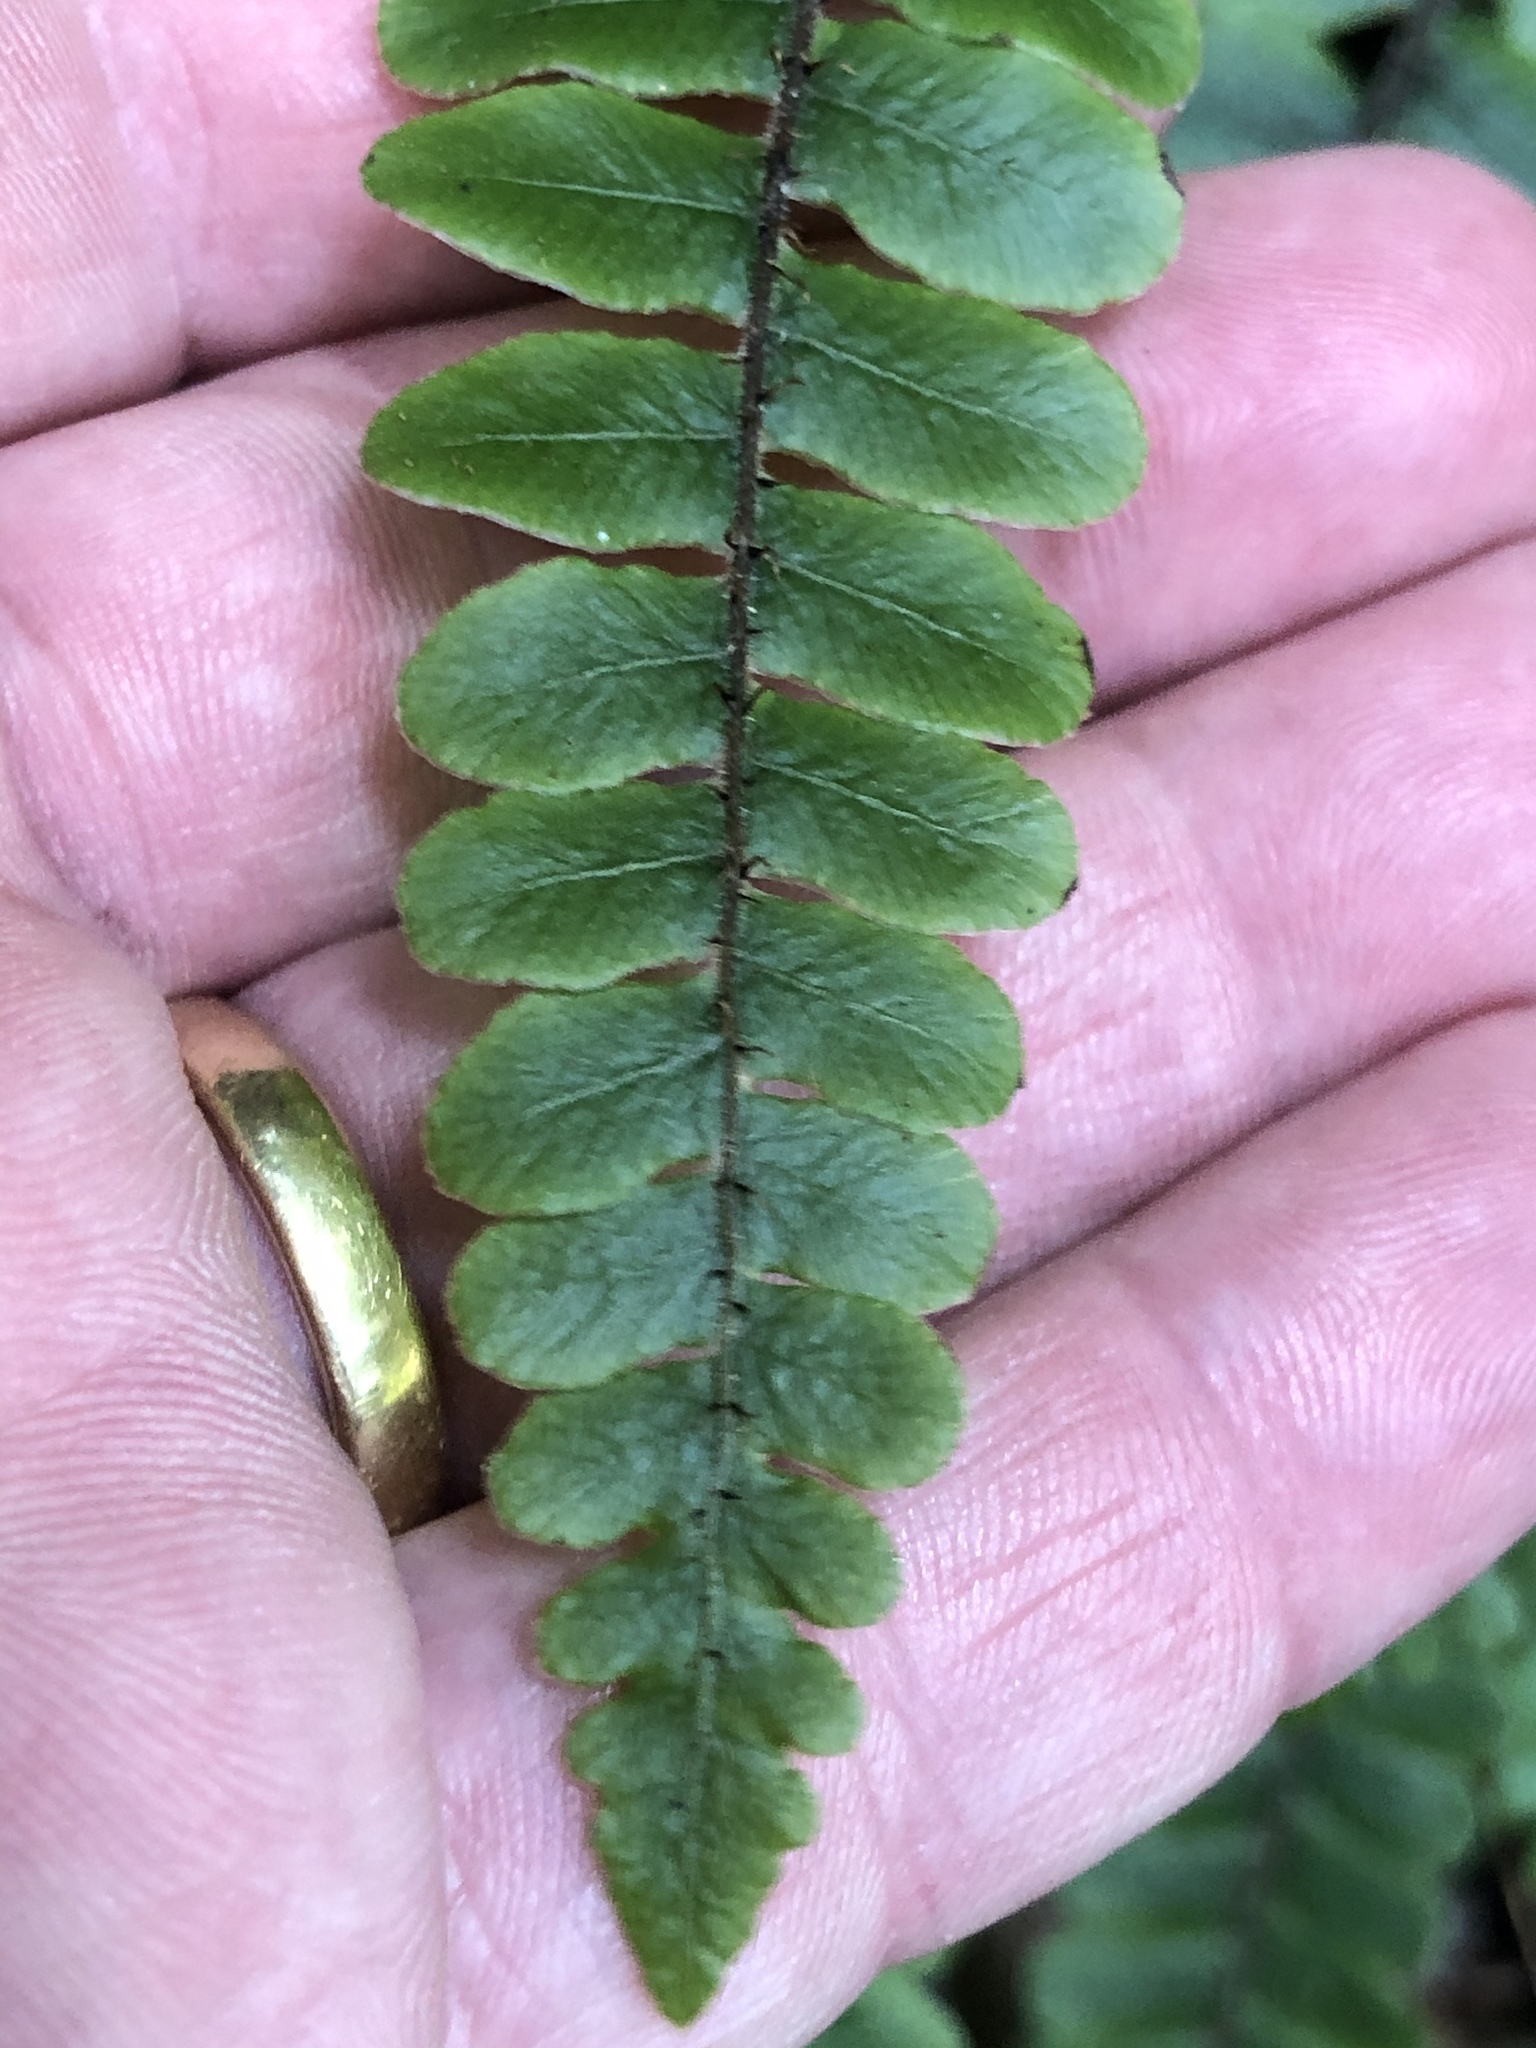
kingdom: Plantae
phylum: Tracheophyta
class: Polypodiopsida
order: Polypodiales
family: Blechnaceae
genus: Cranfillia
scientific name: Cranfillia fluviatilis
